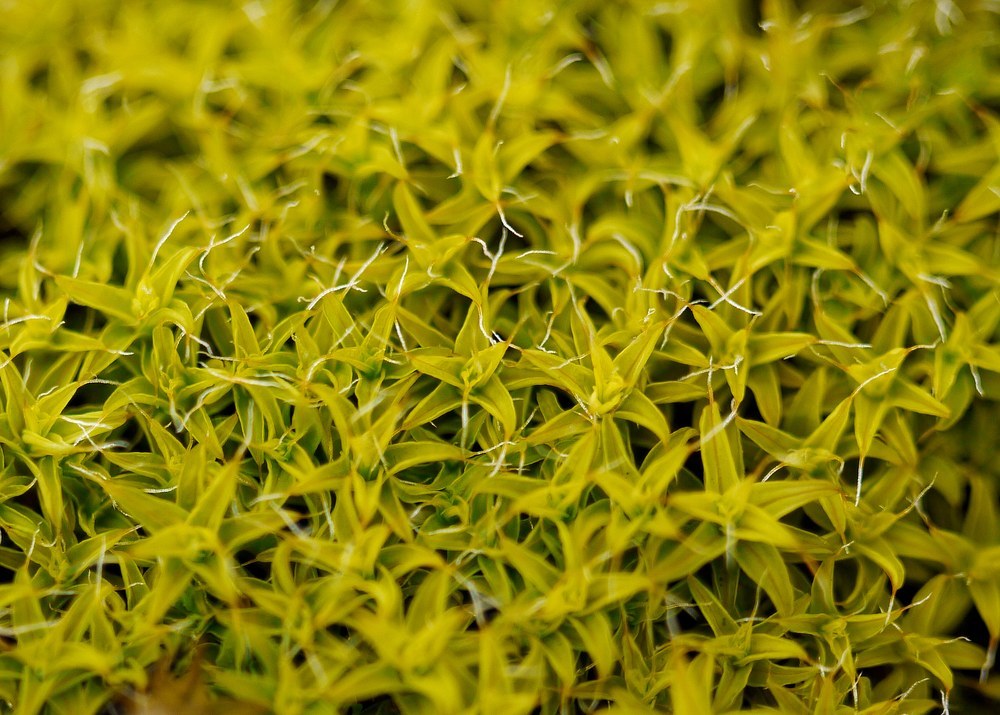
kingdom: Plantae
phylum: Bryophyta
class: Bryopsida
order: Pottiales
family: Pottiaceae
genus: Syntrichia
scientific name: Syntrichia ruralis
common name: Sidewalk screw moss
